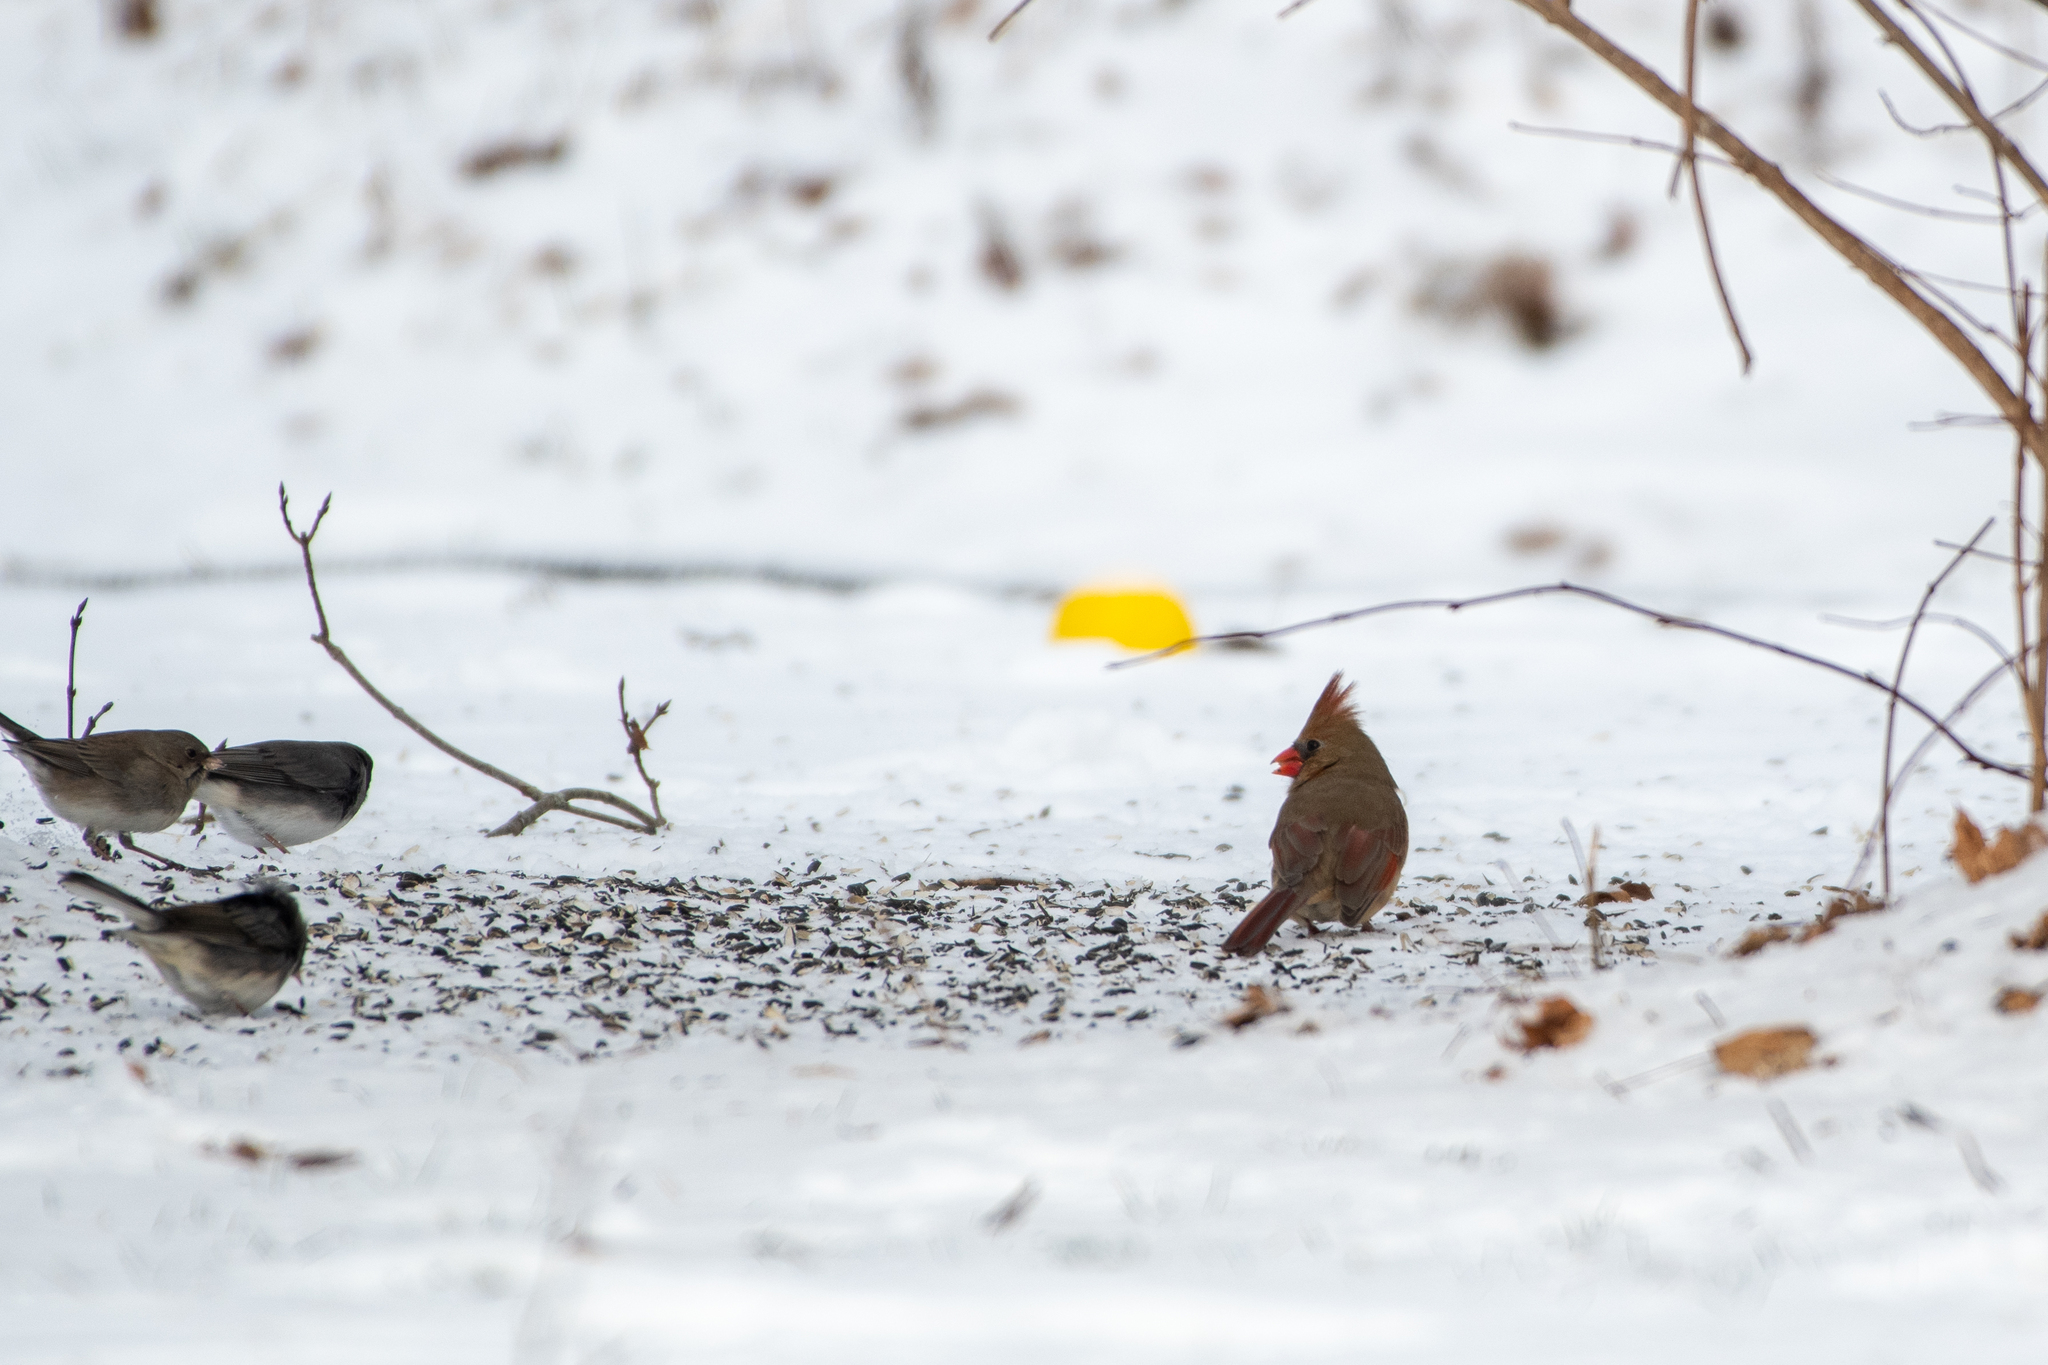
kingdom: Animalia
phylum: Chordata
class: Aves
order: Passeriformes
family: Cardinalidae
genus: Cardinalis
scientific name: Cardinalis cardinalis
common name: Northern cardinal
